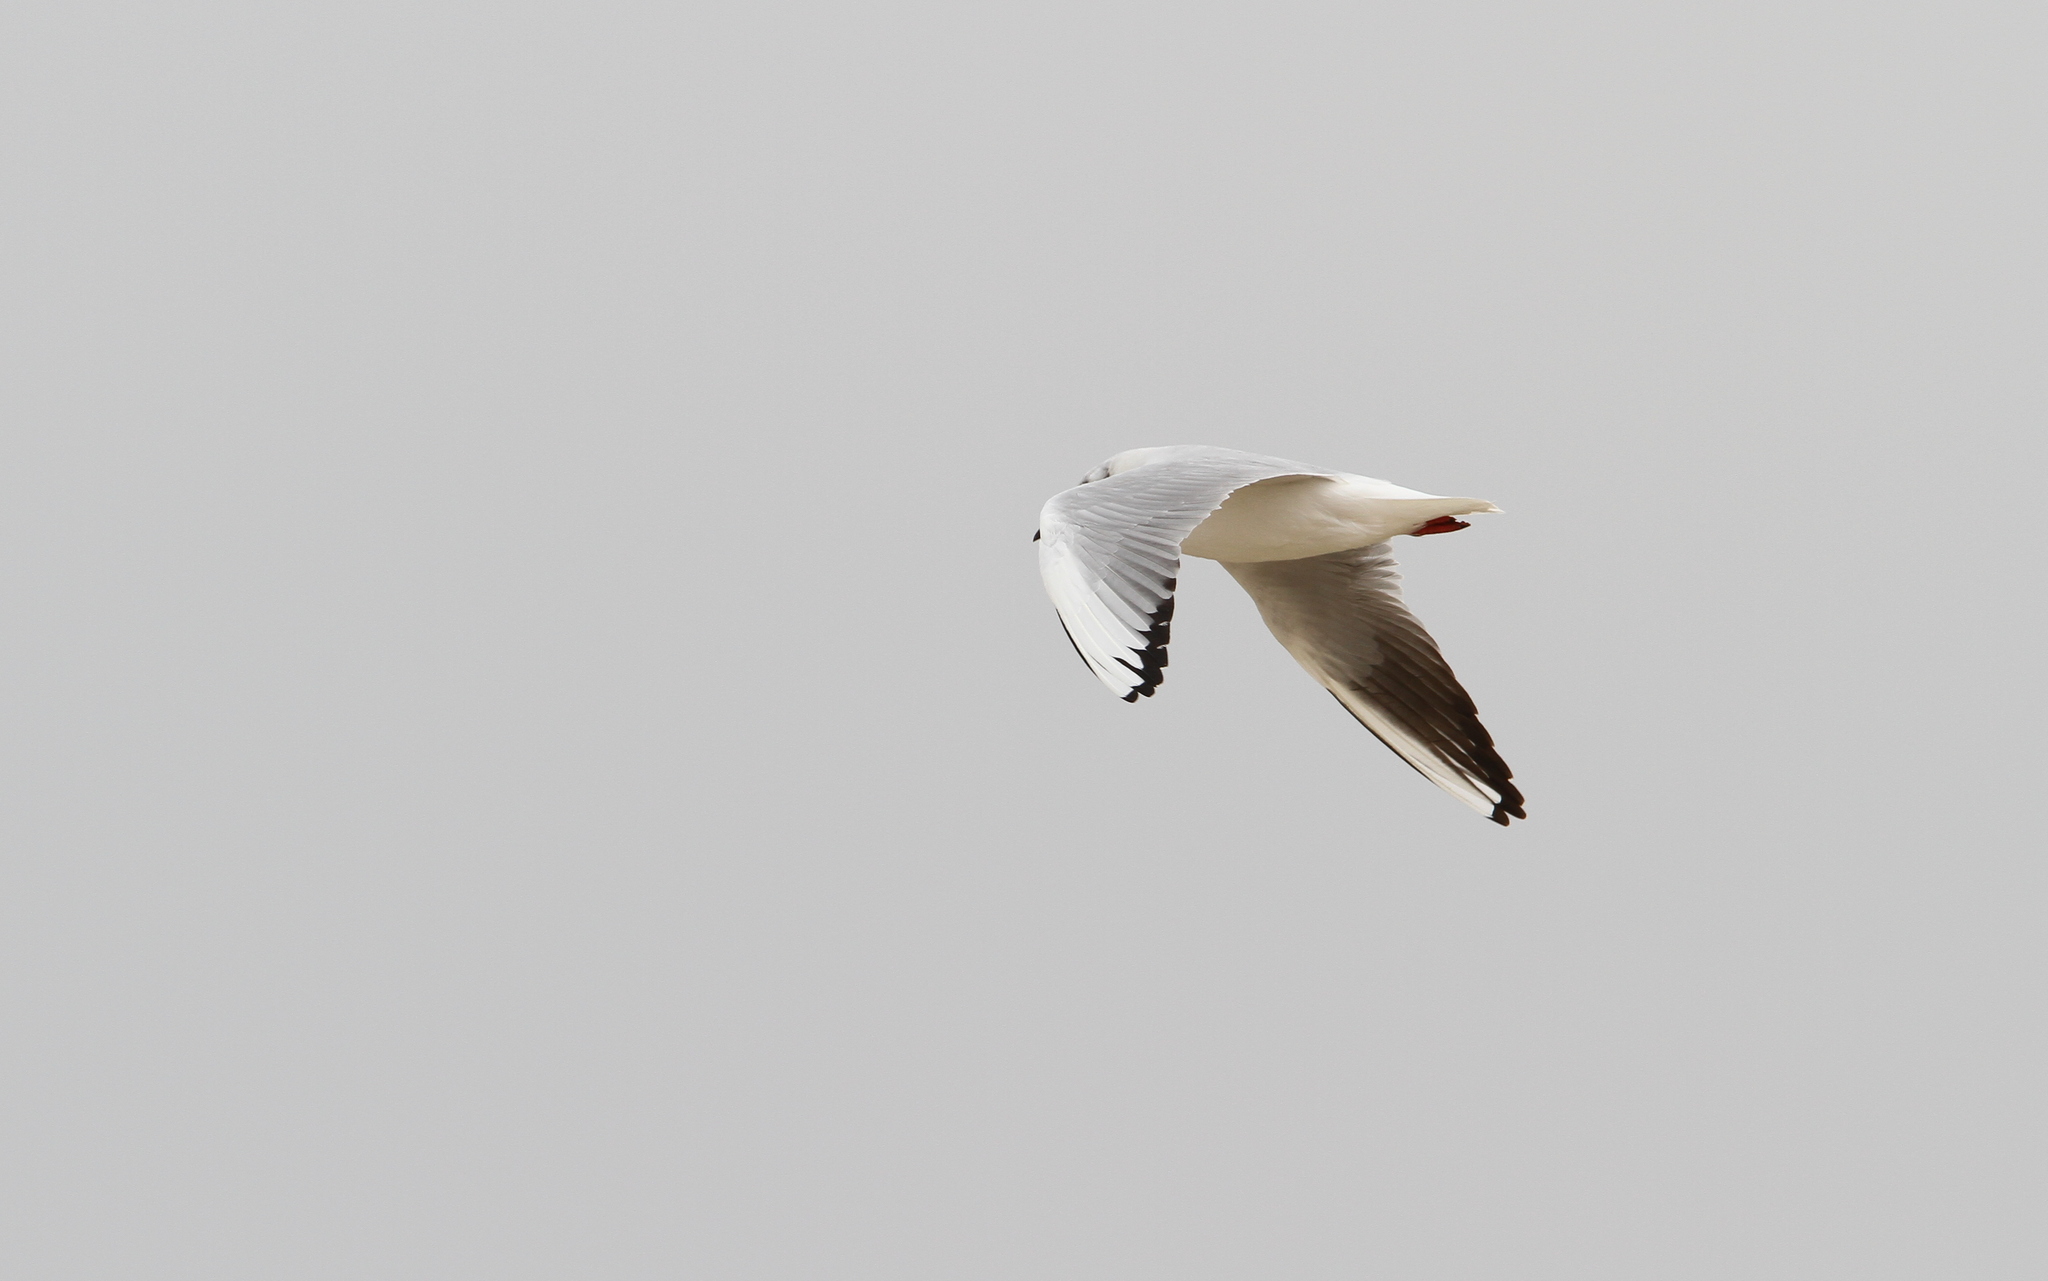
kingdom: Animalia
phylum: Chordata
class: Aves
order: Charadriiformes
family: Laridae
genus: Chroicocephalus
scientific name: Chroicocephalus ridibundus
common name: Black-headed gull
